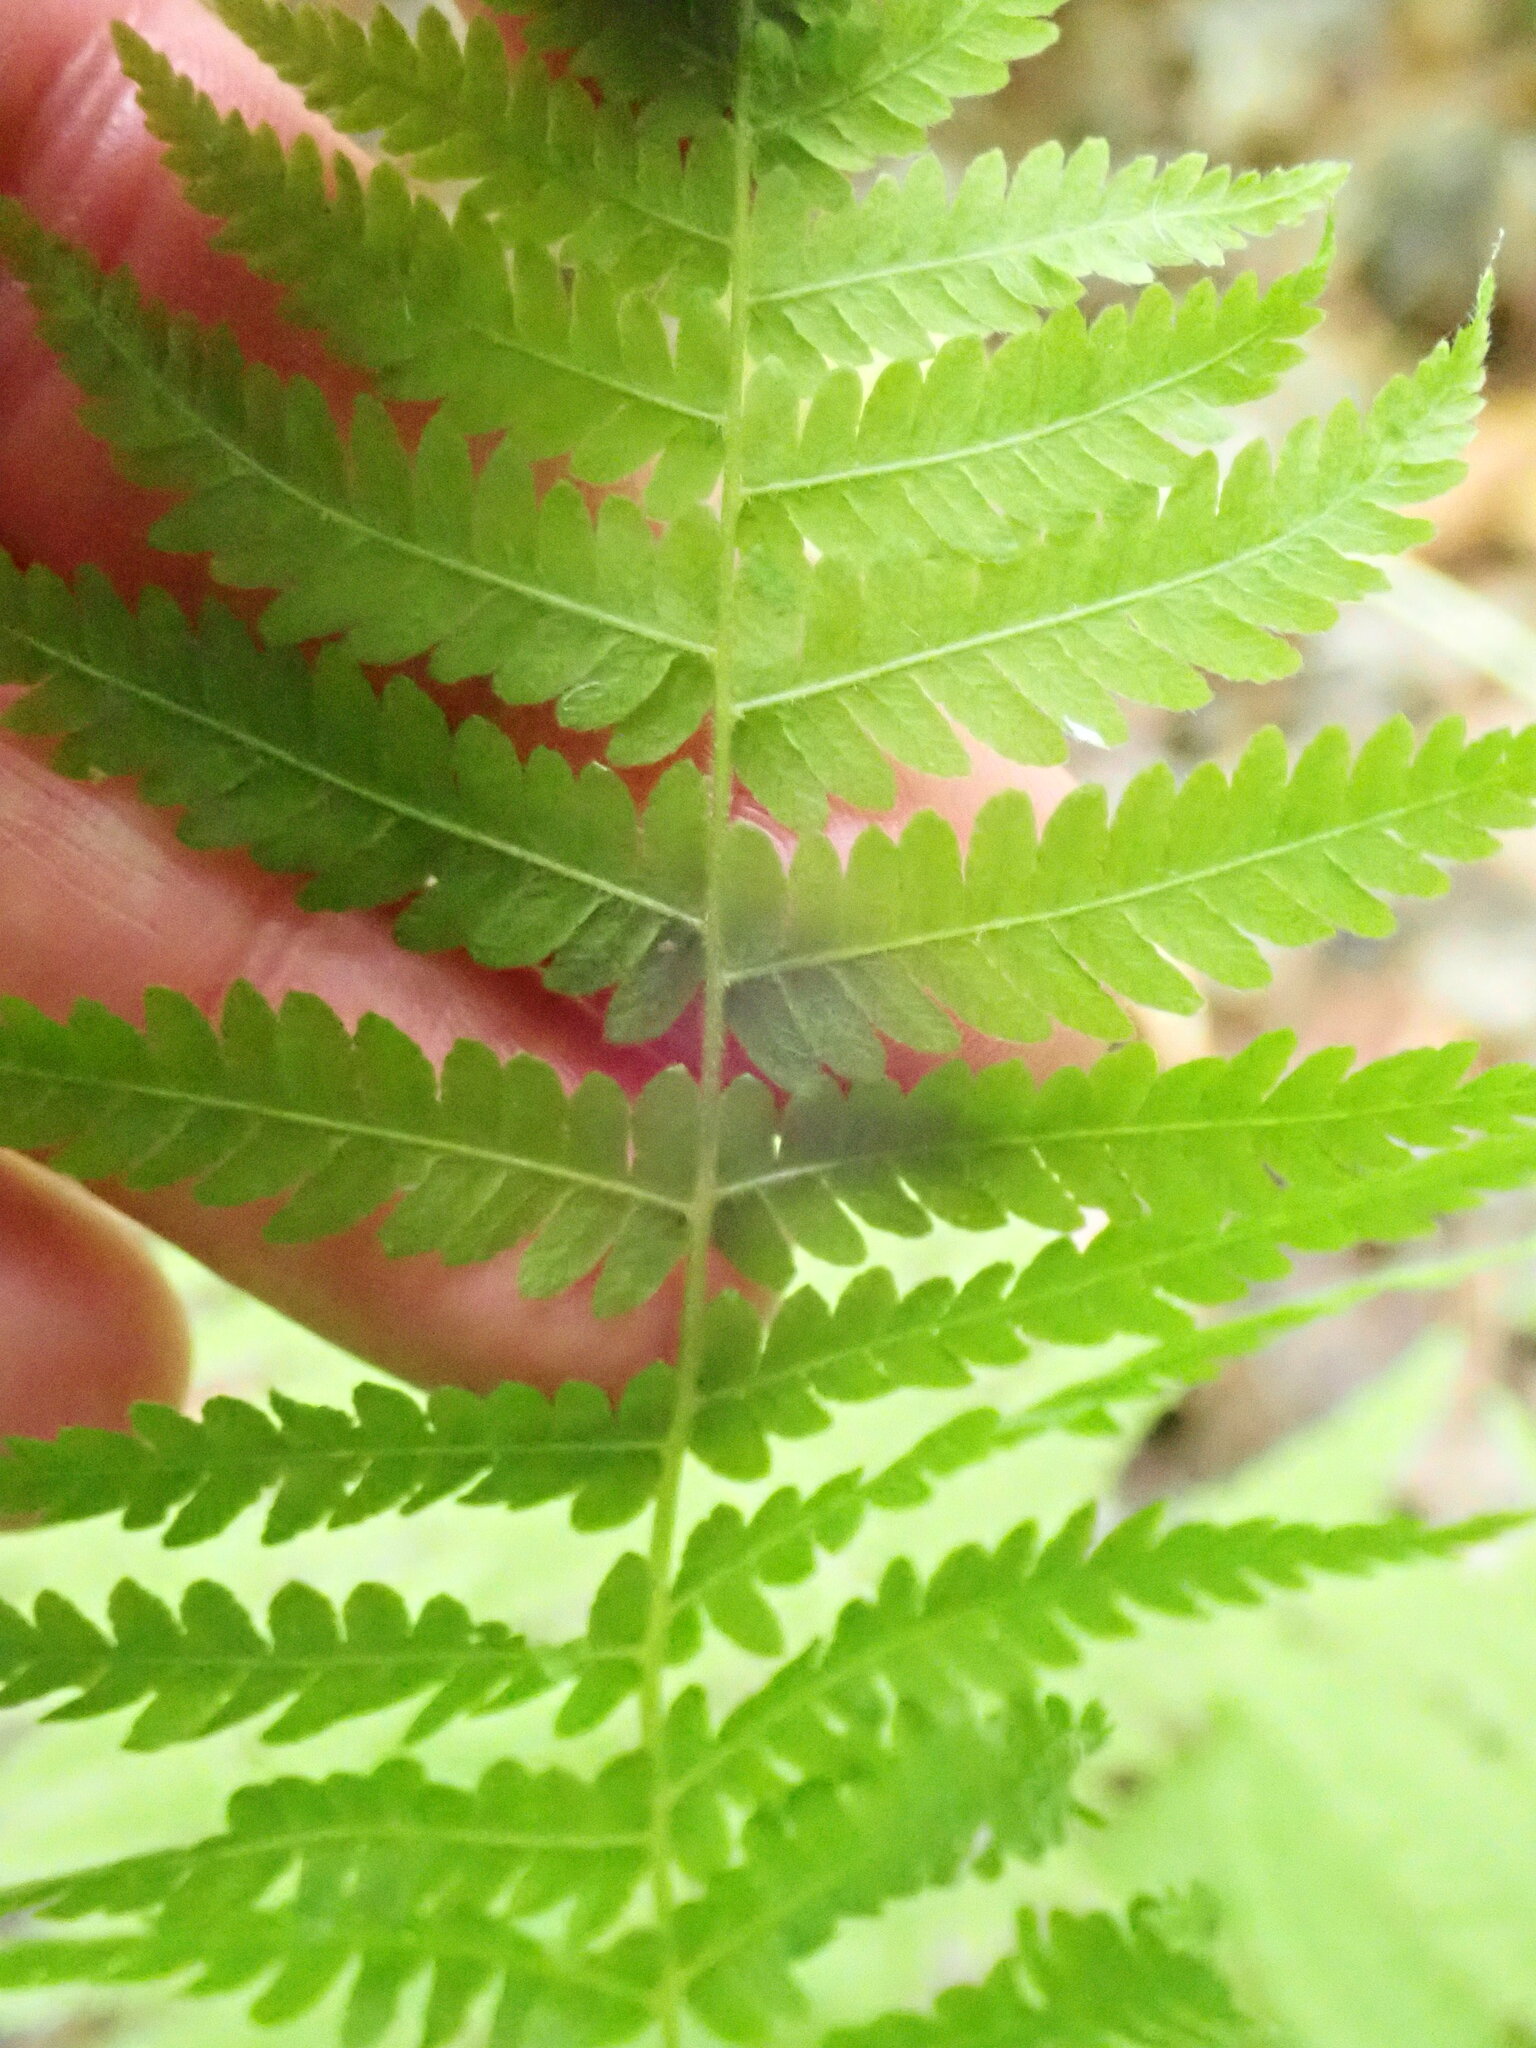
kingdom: Plantae
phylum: Tracheophyta
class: Polypodiopsida
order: Polypodiales
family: Thelypteridaceae
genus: Amauropelta
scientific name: Amauropelta noveboracensis
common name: New york fern
